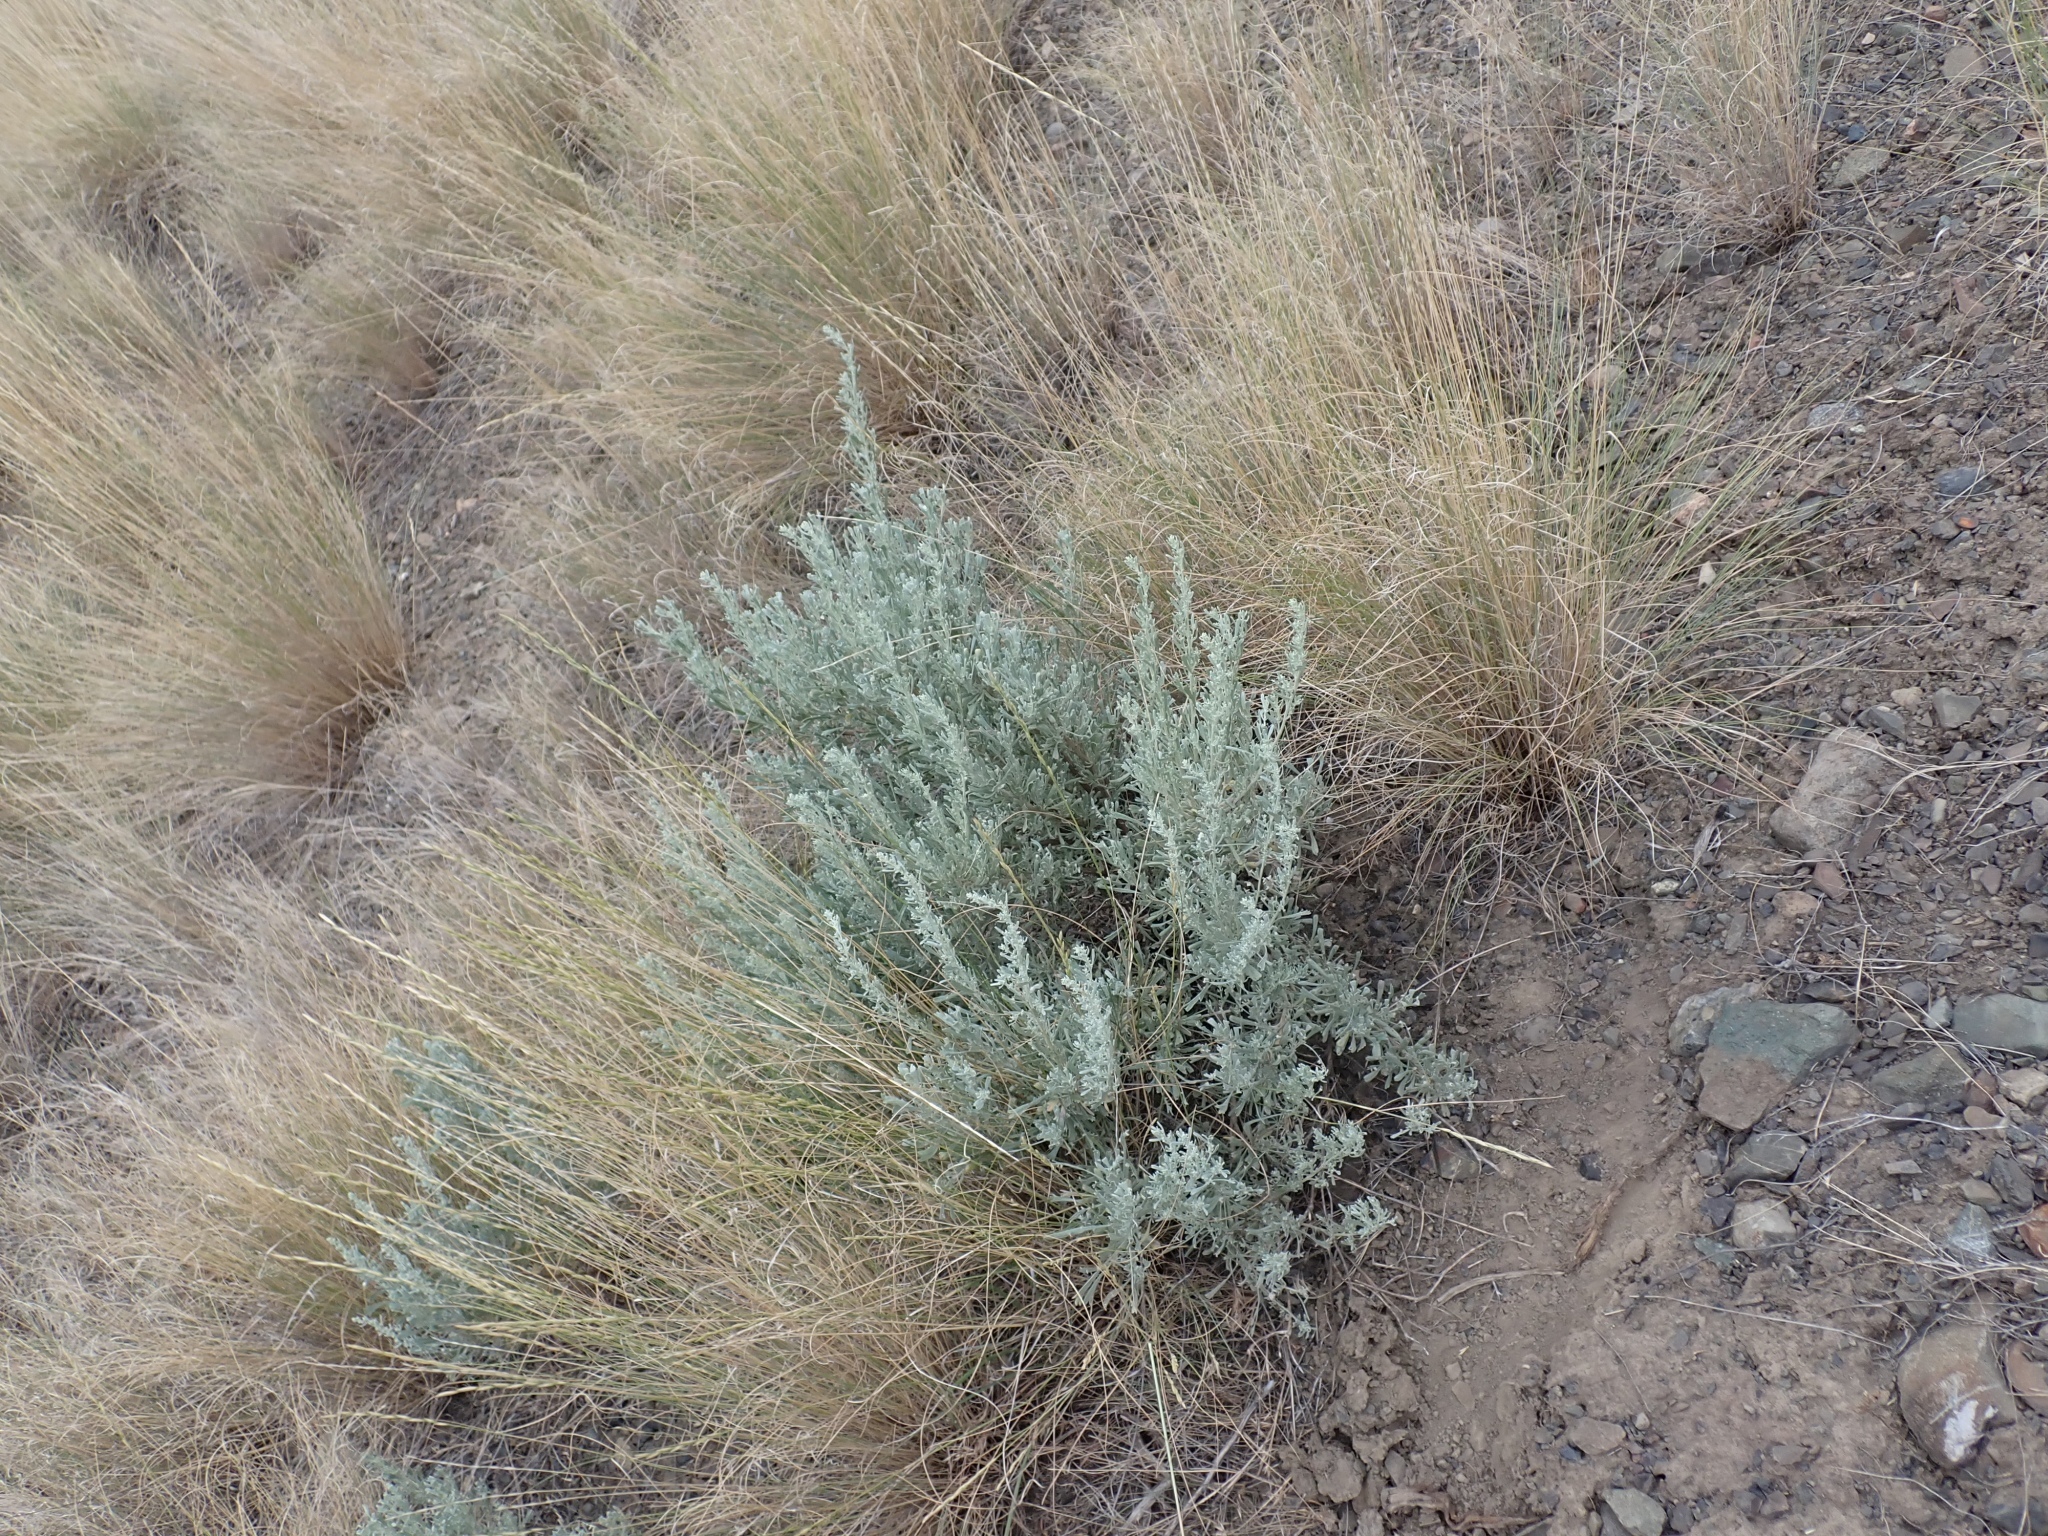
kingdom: Plantae
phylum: Tracheophyta
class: Magnoliopsida
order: Asterales
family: Asteraceae
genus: Artemisia
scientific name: Artemisia tridentata
